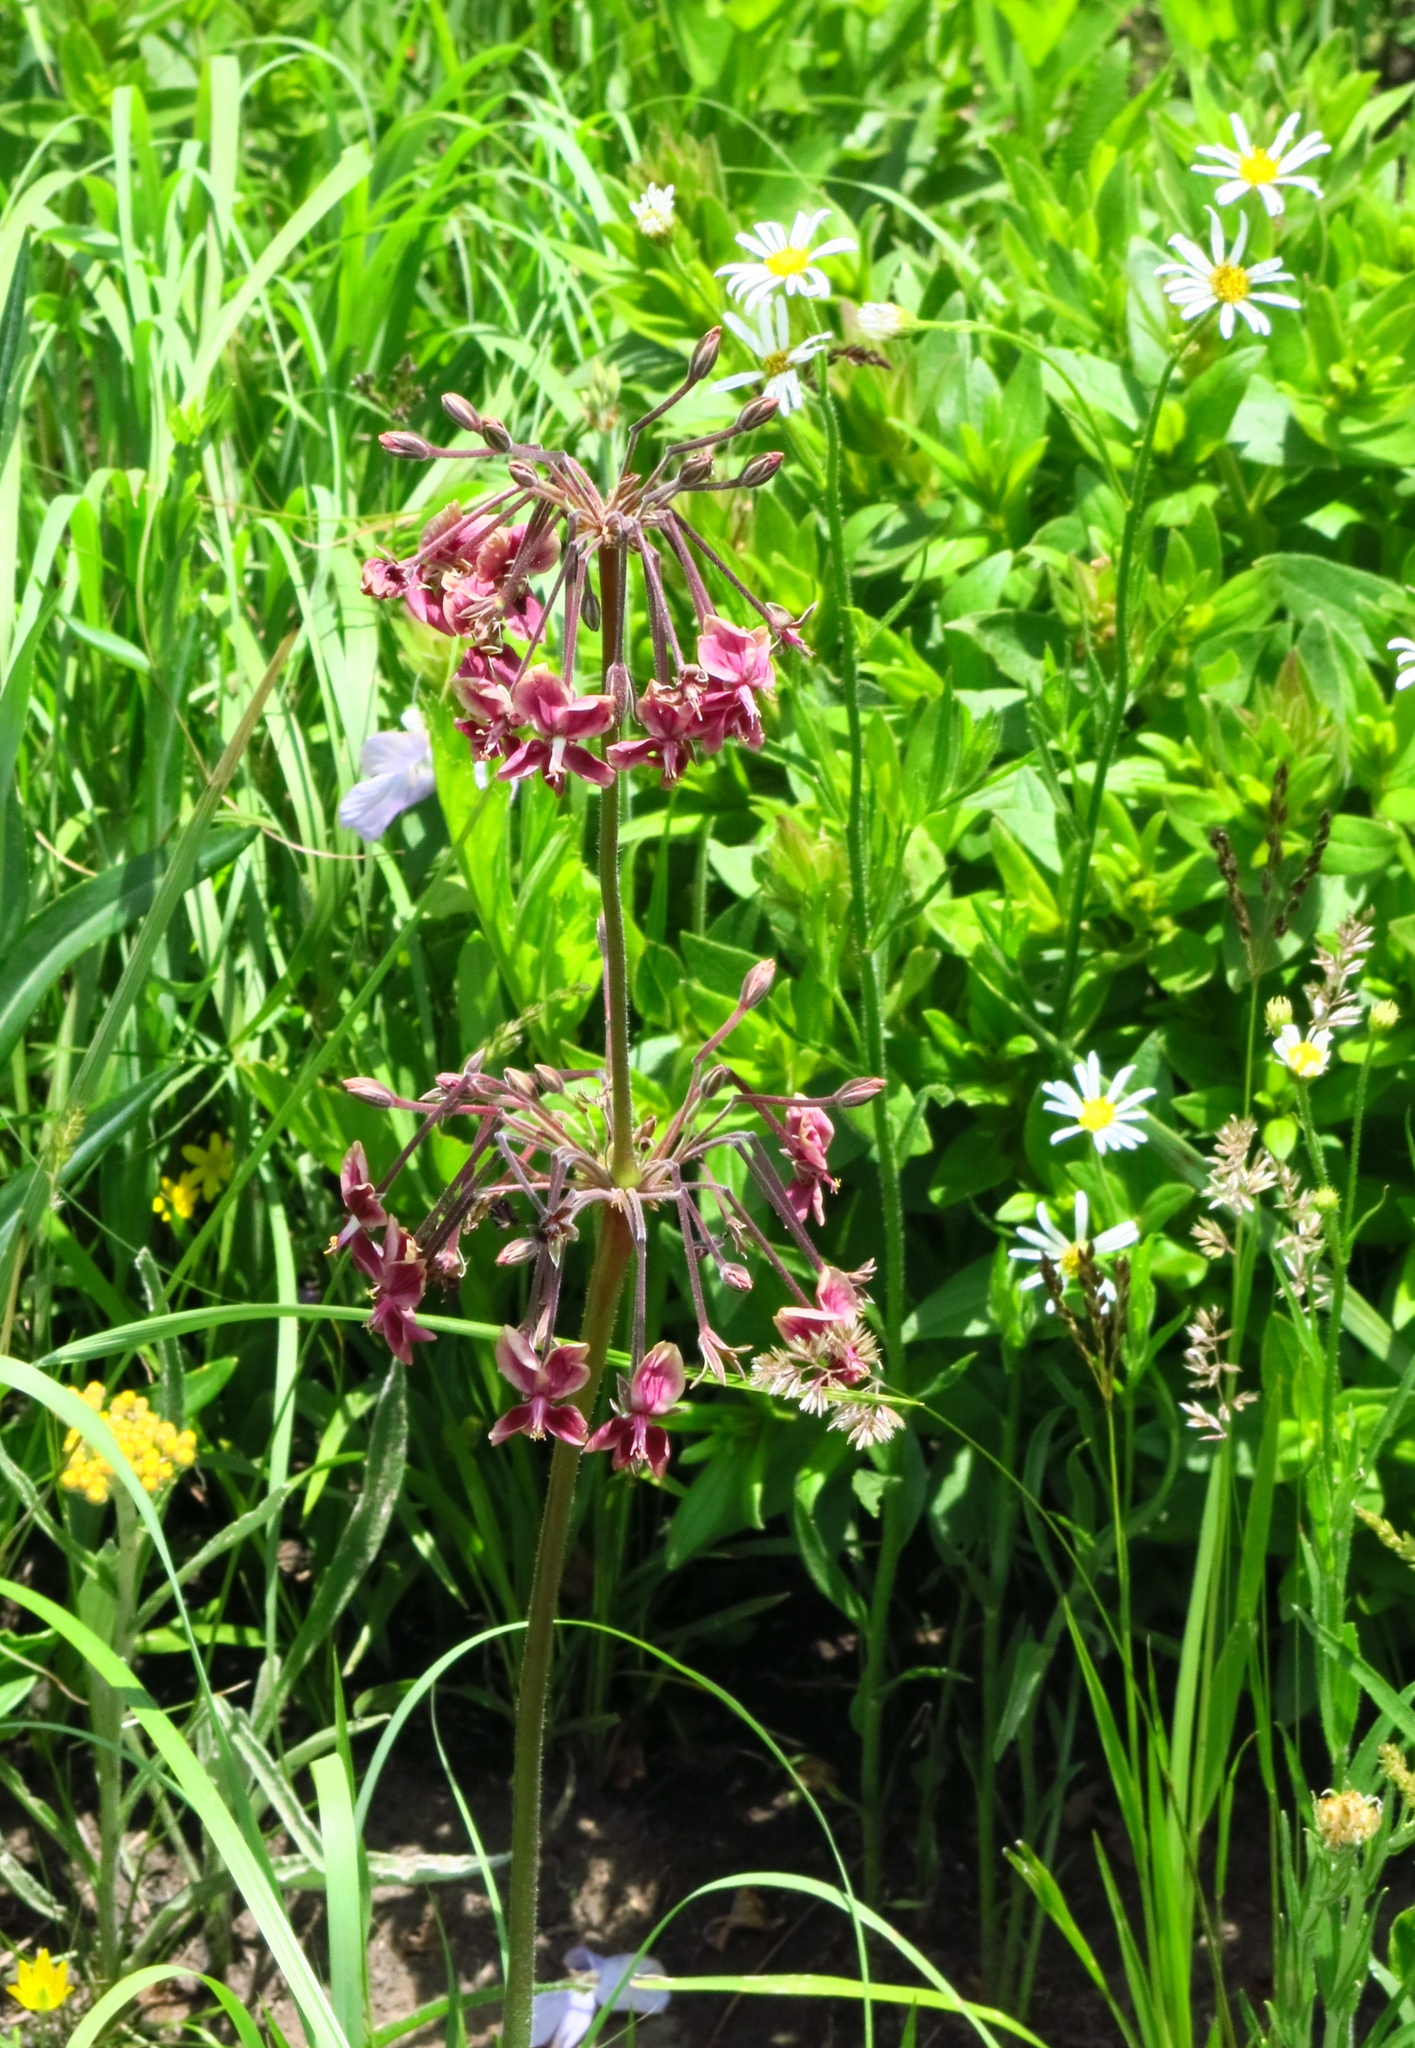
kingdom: Plantae
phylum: Tracheophyta
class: Magnoliopsida
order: Geraniales
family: Geraniaceae
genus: Pelargonium
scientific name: Pelargonium luridum
